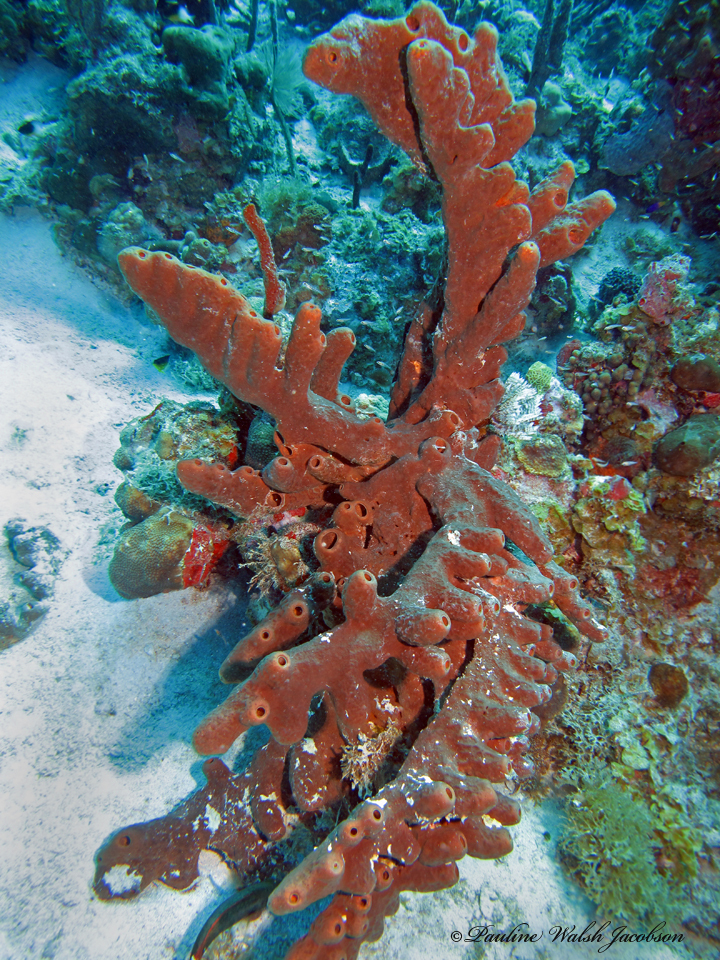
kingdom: Animalia
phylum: Porifera
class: Demospongiae
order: Agelasida
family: Agelasidae
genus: Agelas
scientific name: Agelas conifera
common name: Brown tube sponge
